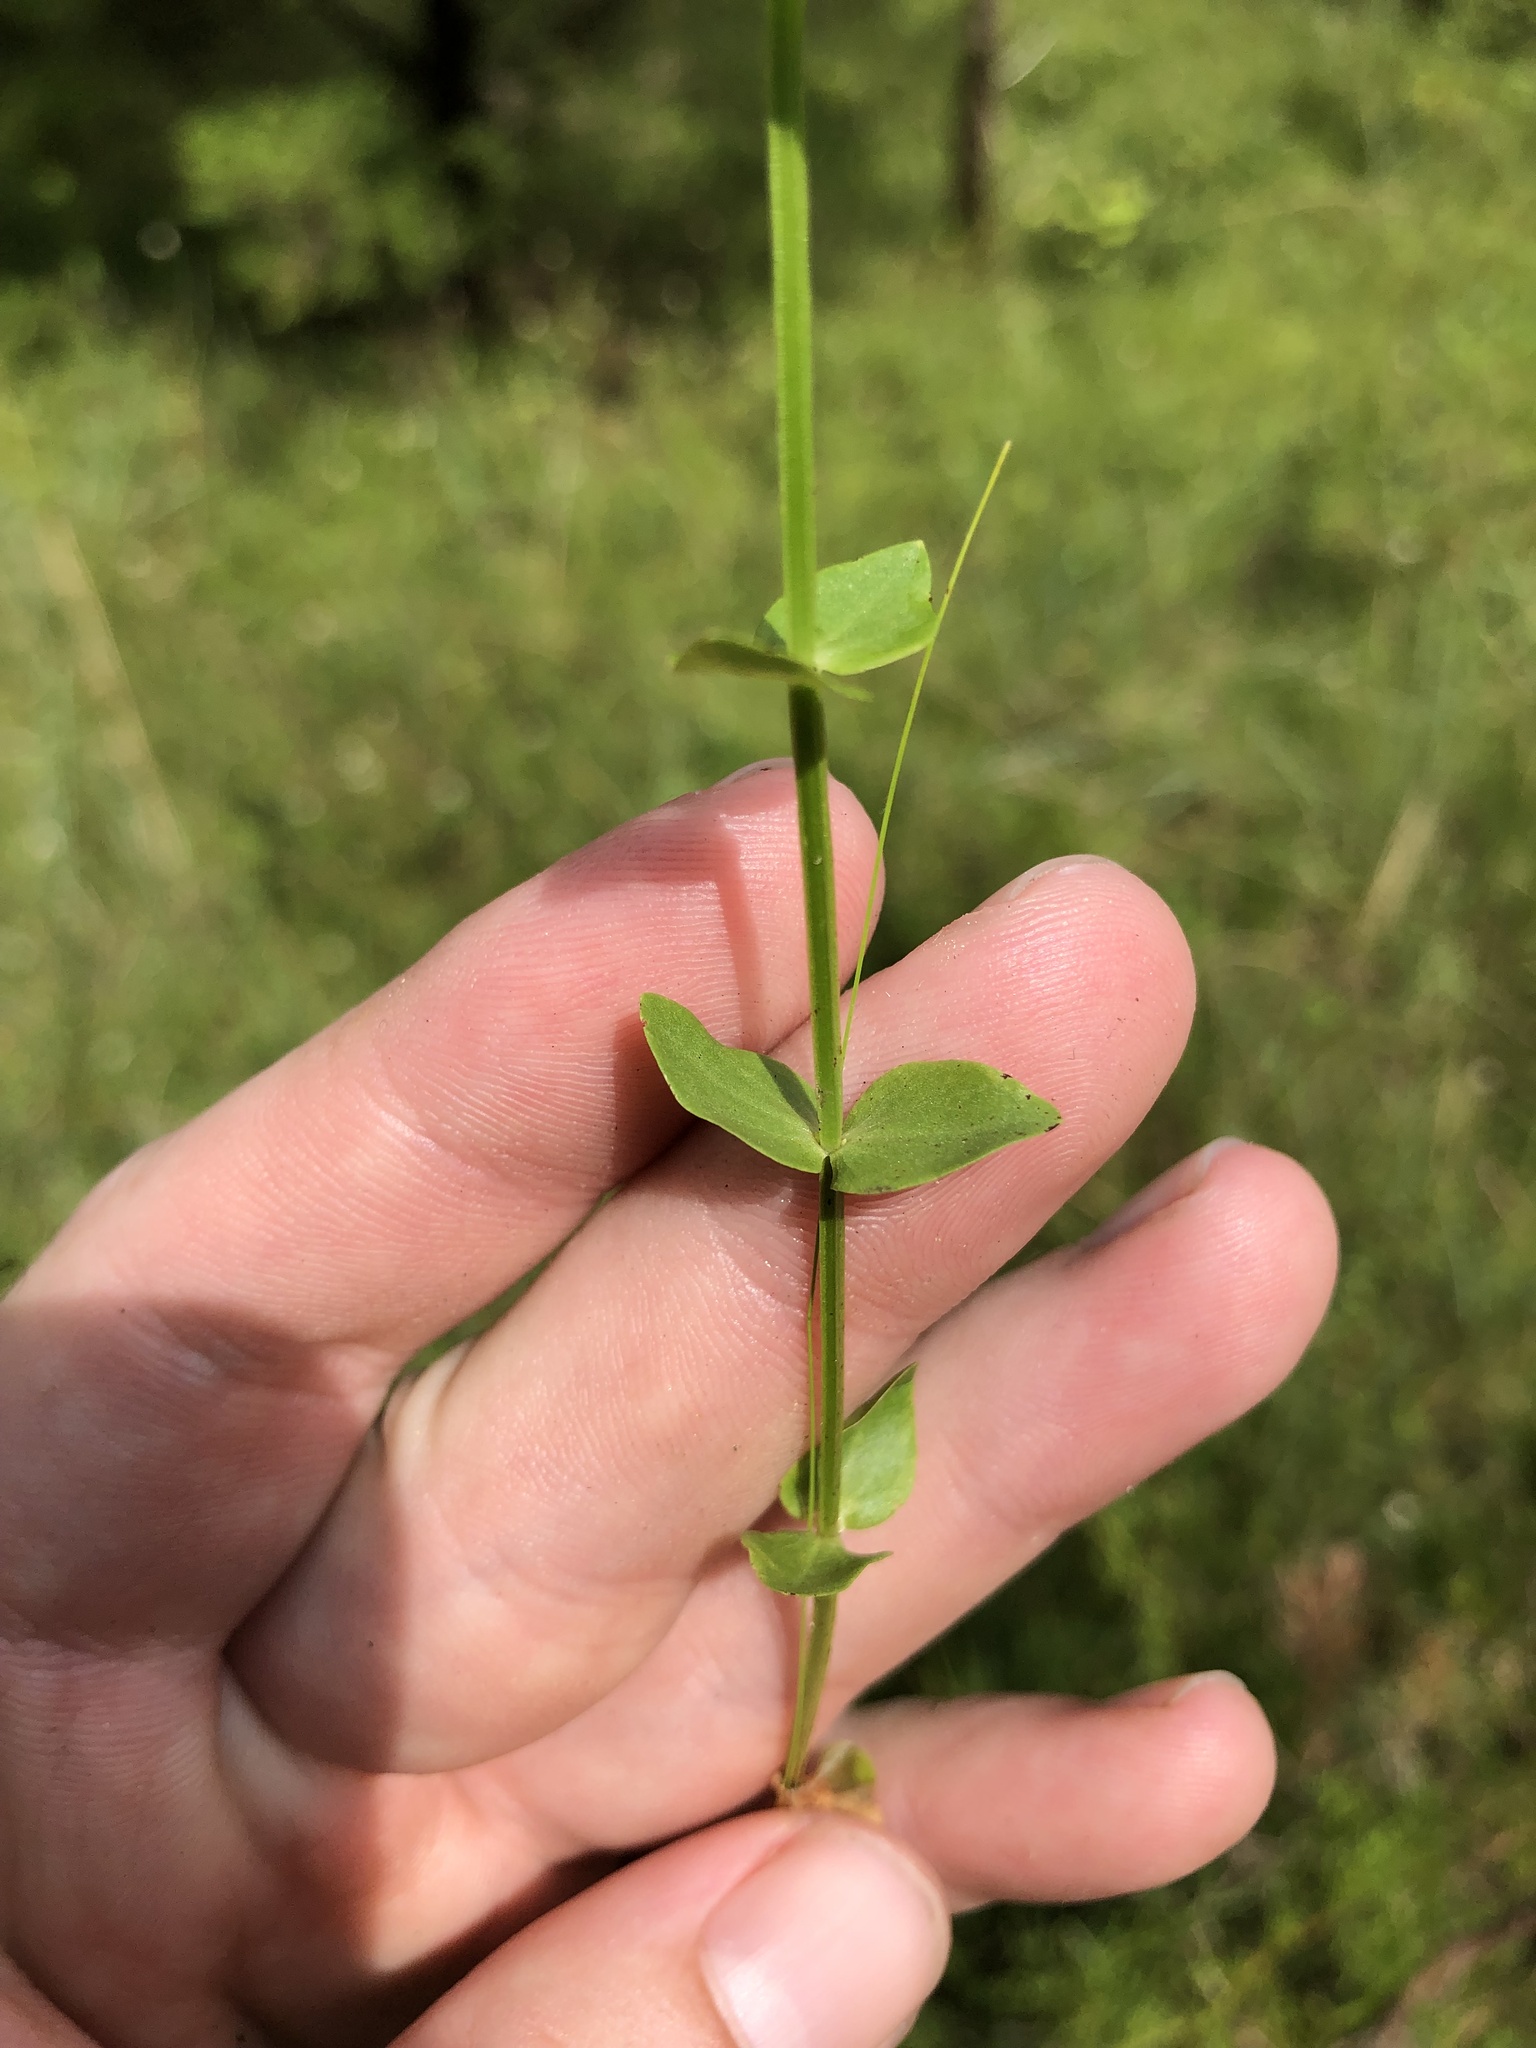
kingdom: Plantae
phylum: Tracheophyta
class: Magnoliopsida
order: Gentianales
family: Gentianaceae
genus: Sabatia
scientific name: Sabatia angularis
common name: Rose-pink
